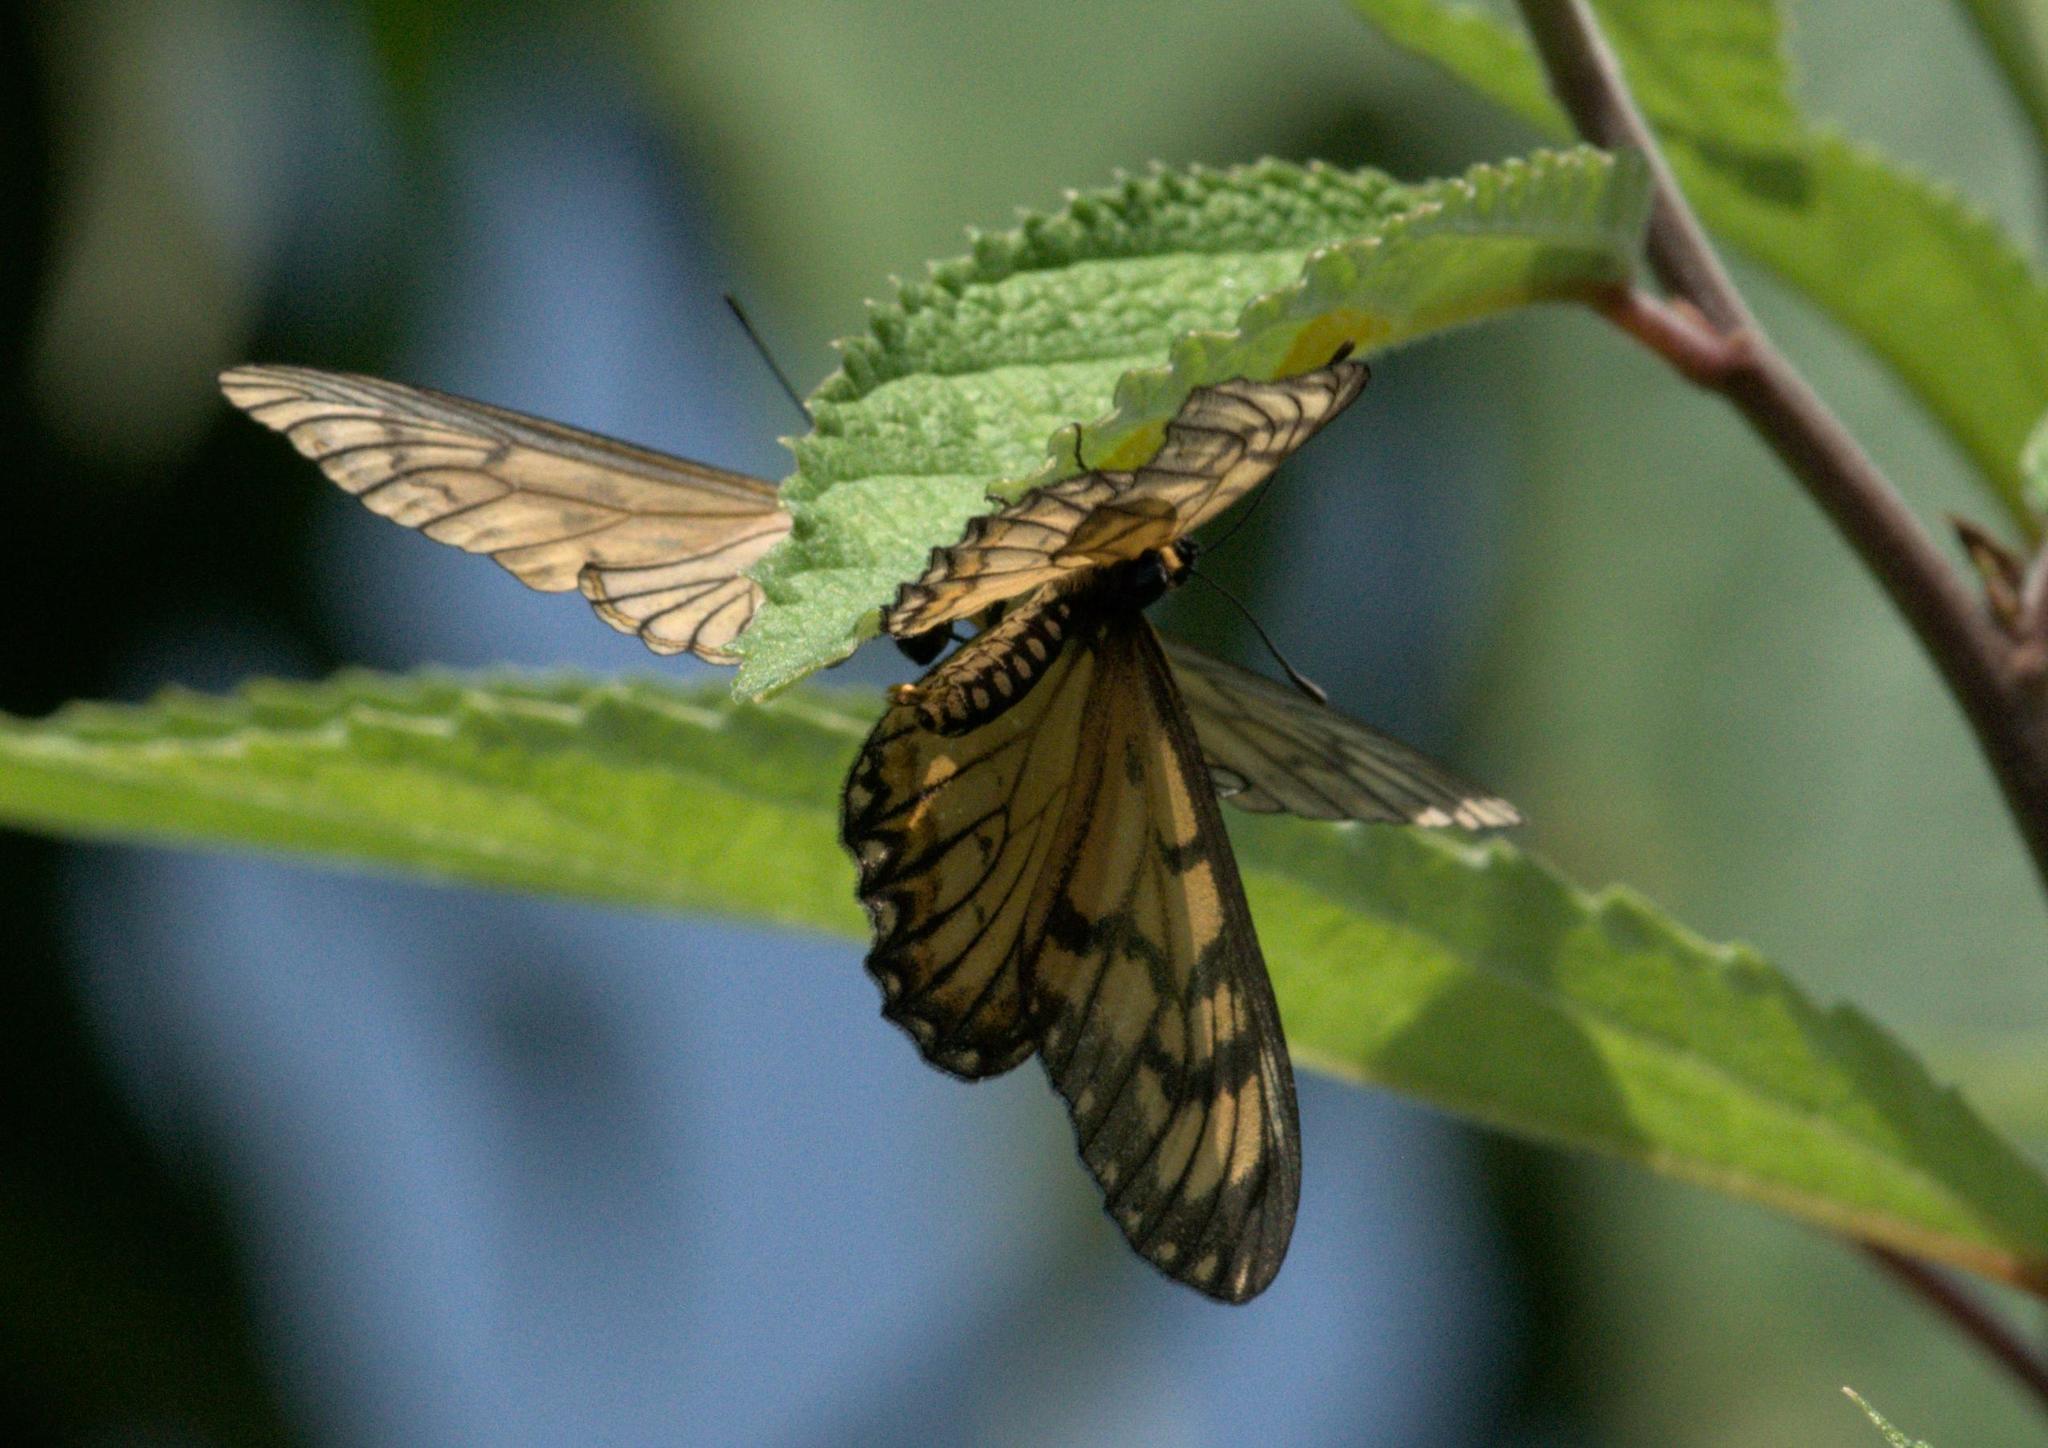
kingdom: Animalia
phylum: Arthropoda
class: Insecta
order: Lepidoptera
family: Nymphalidae
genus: Acraea
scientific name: Acraea Telchinia issoria
